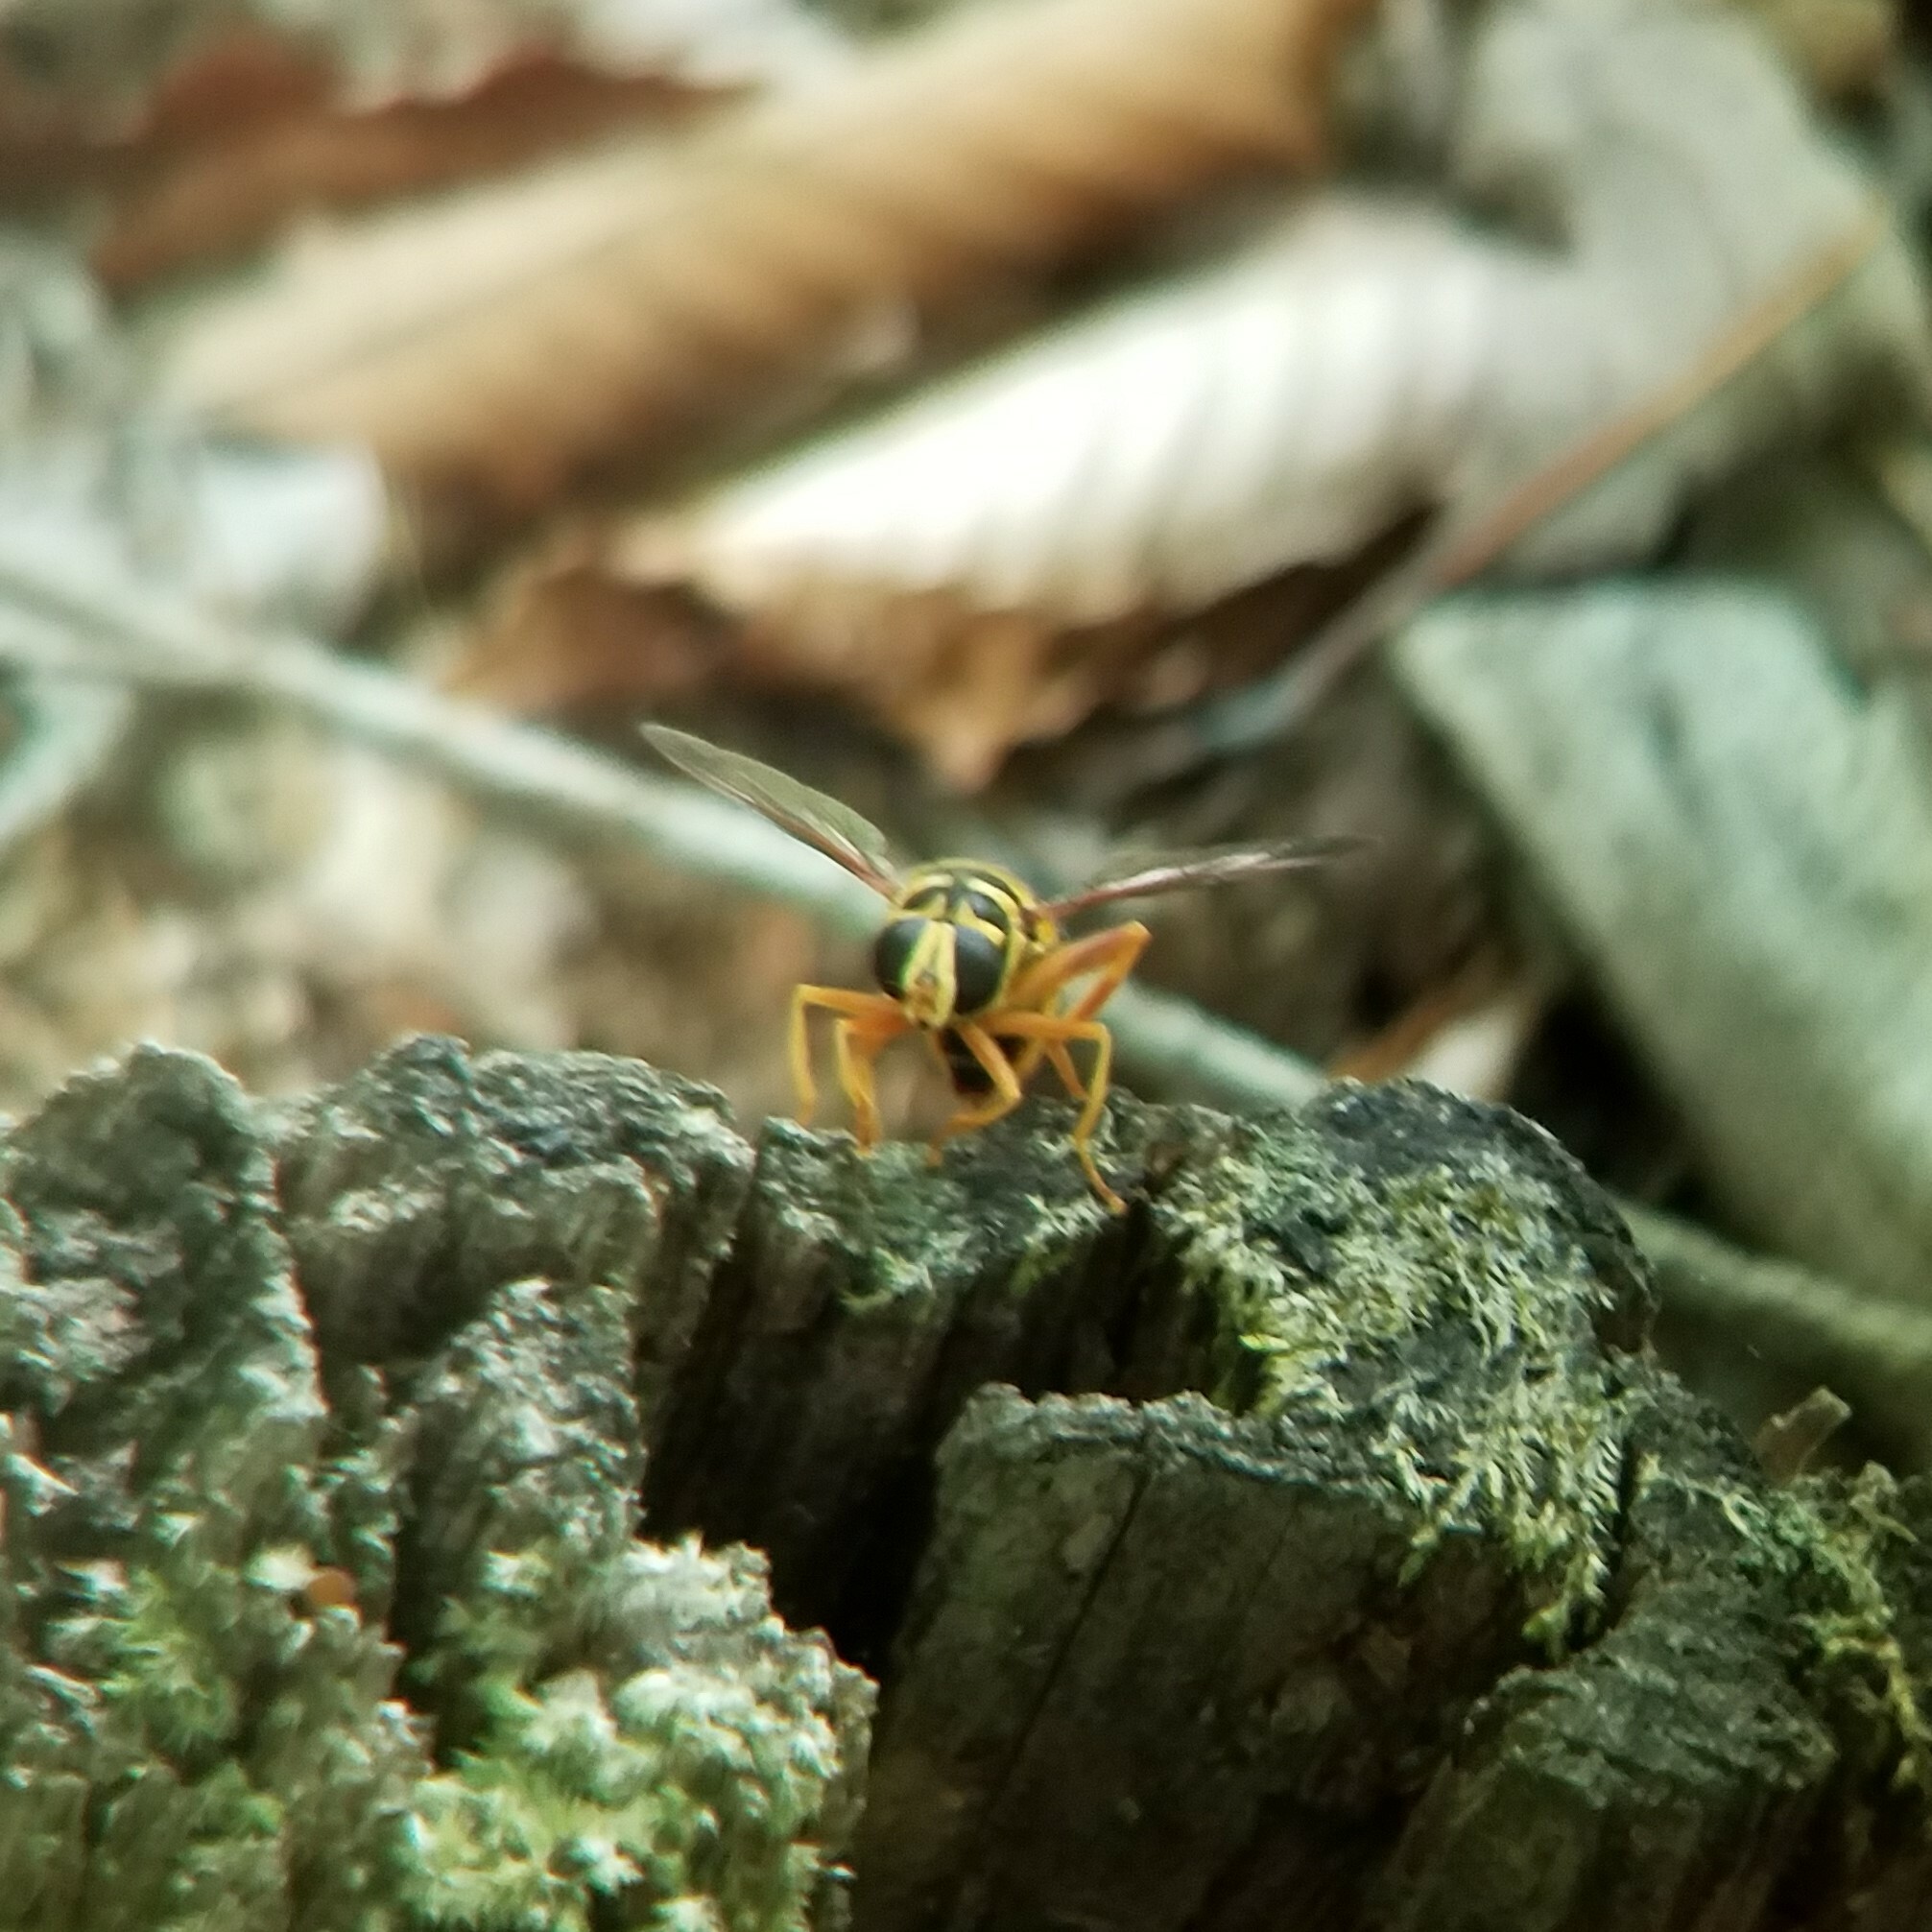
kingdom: Animalia
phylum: Arthropoda
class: Insecta
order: Diptera
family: Syrphidae
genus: Milesia
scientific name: Milesia virginiensis
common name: Virginia giant
